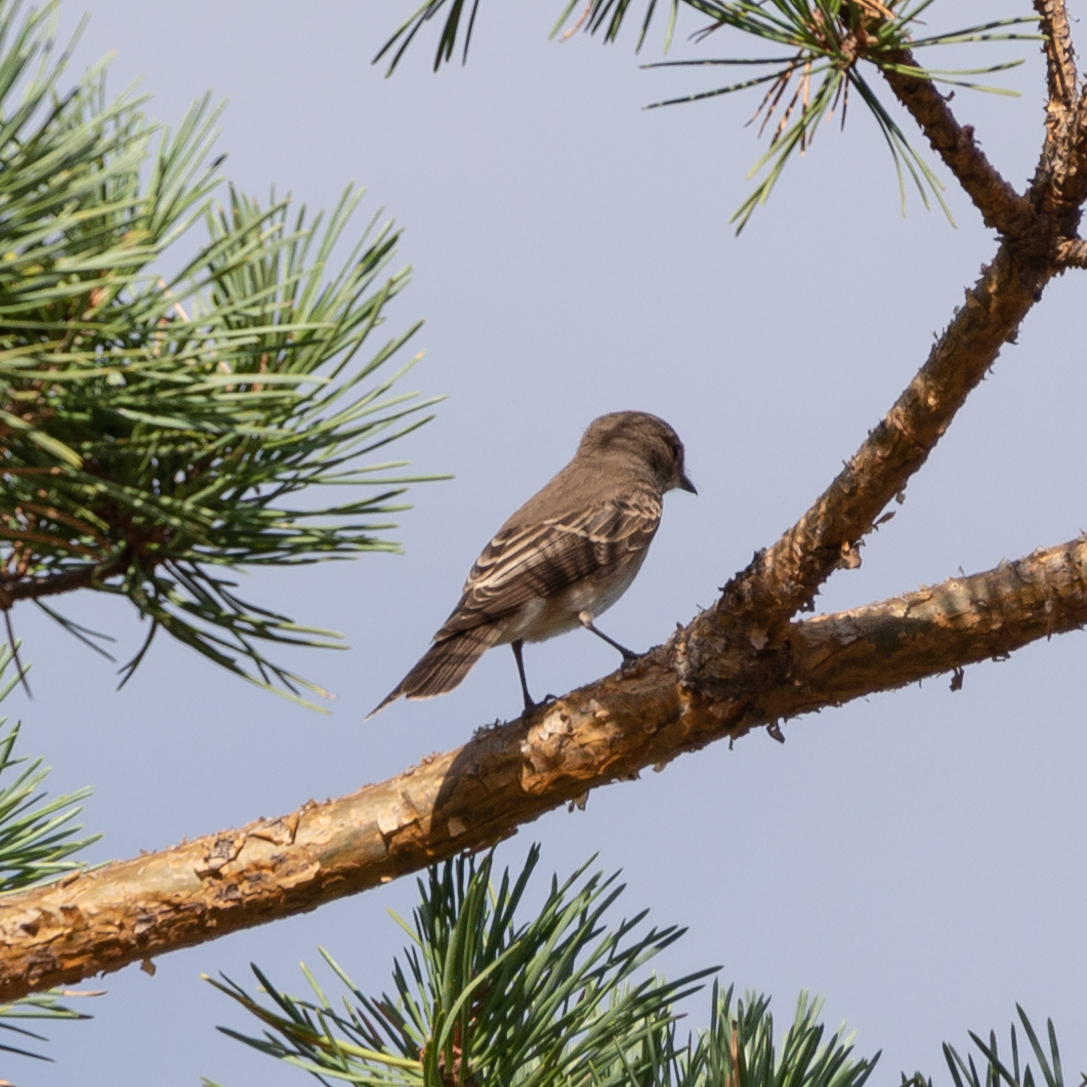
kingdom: Animalia
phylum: Chordata
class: Aves
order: Passeriformes
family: Muscicapidae
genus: Muscicapa
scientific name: Muscicapa striata
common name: Spotted flycatcher
